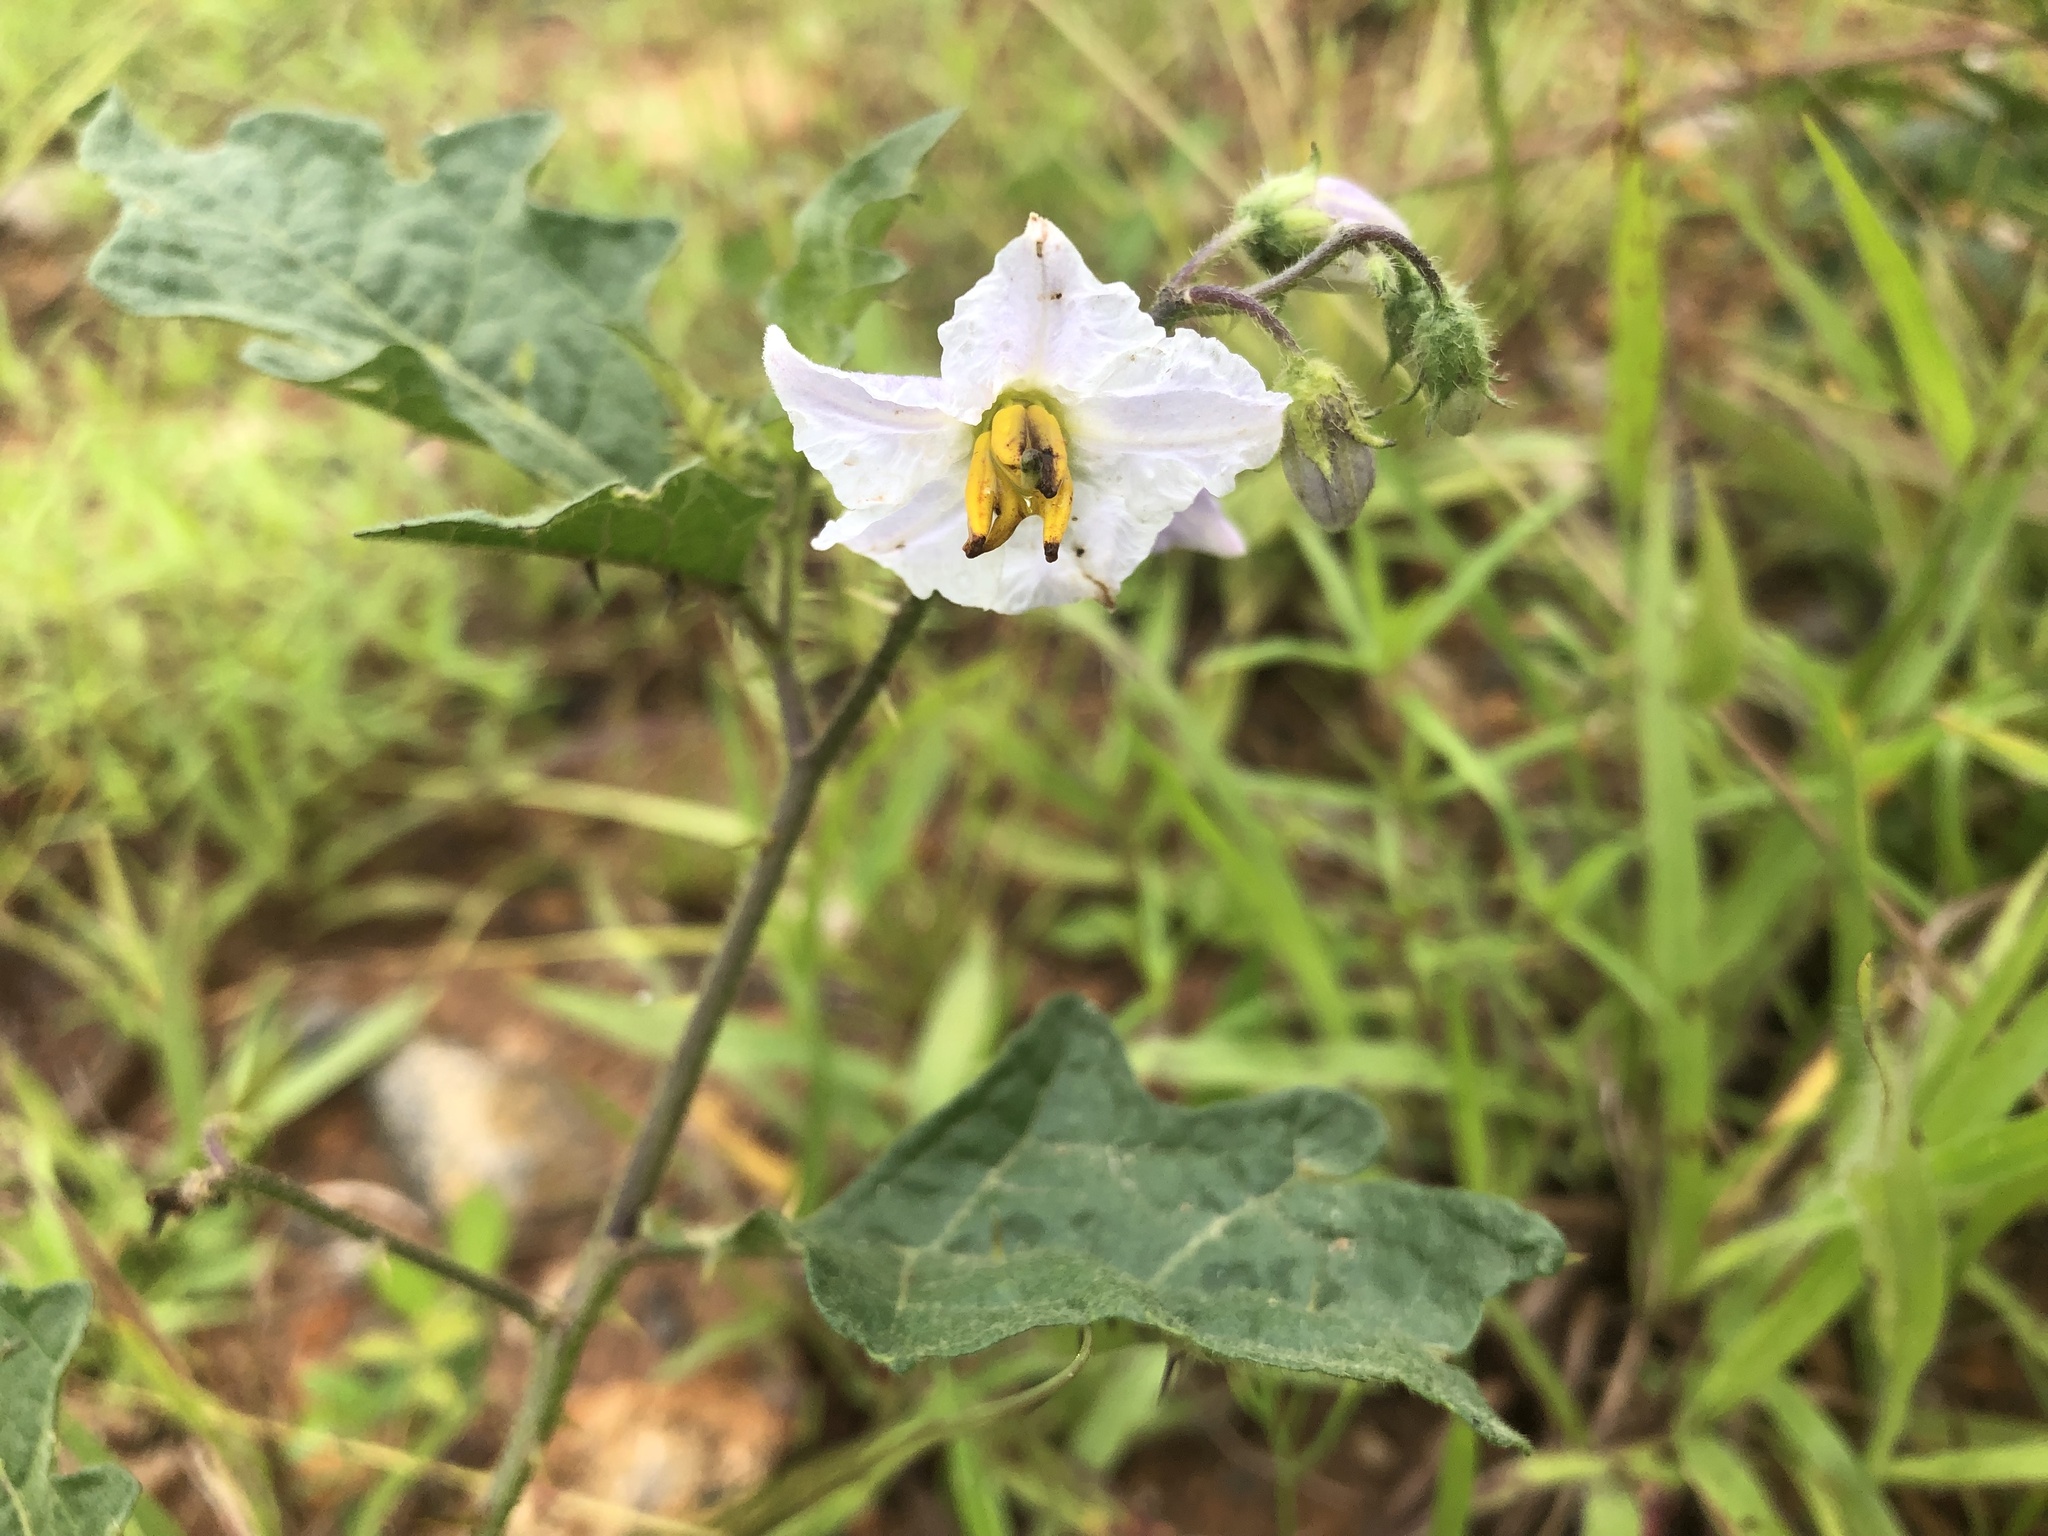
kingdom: Plantae
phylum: Tracheophyta
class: Magnoliopsida
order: Solanales
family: Solanaceae
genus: Solanum
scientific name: Solanum carolinense
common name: Horse-nettle
